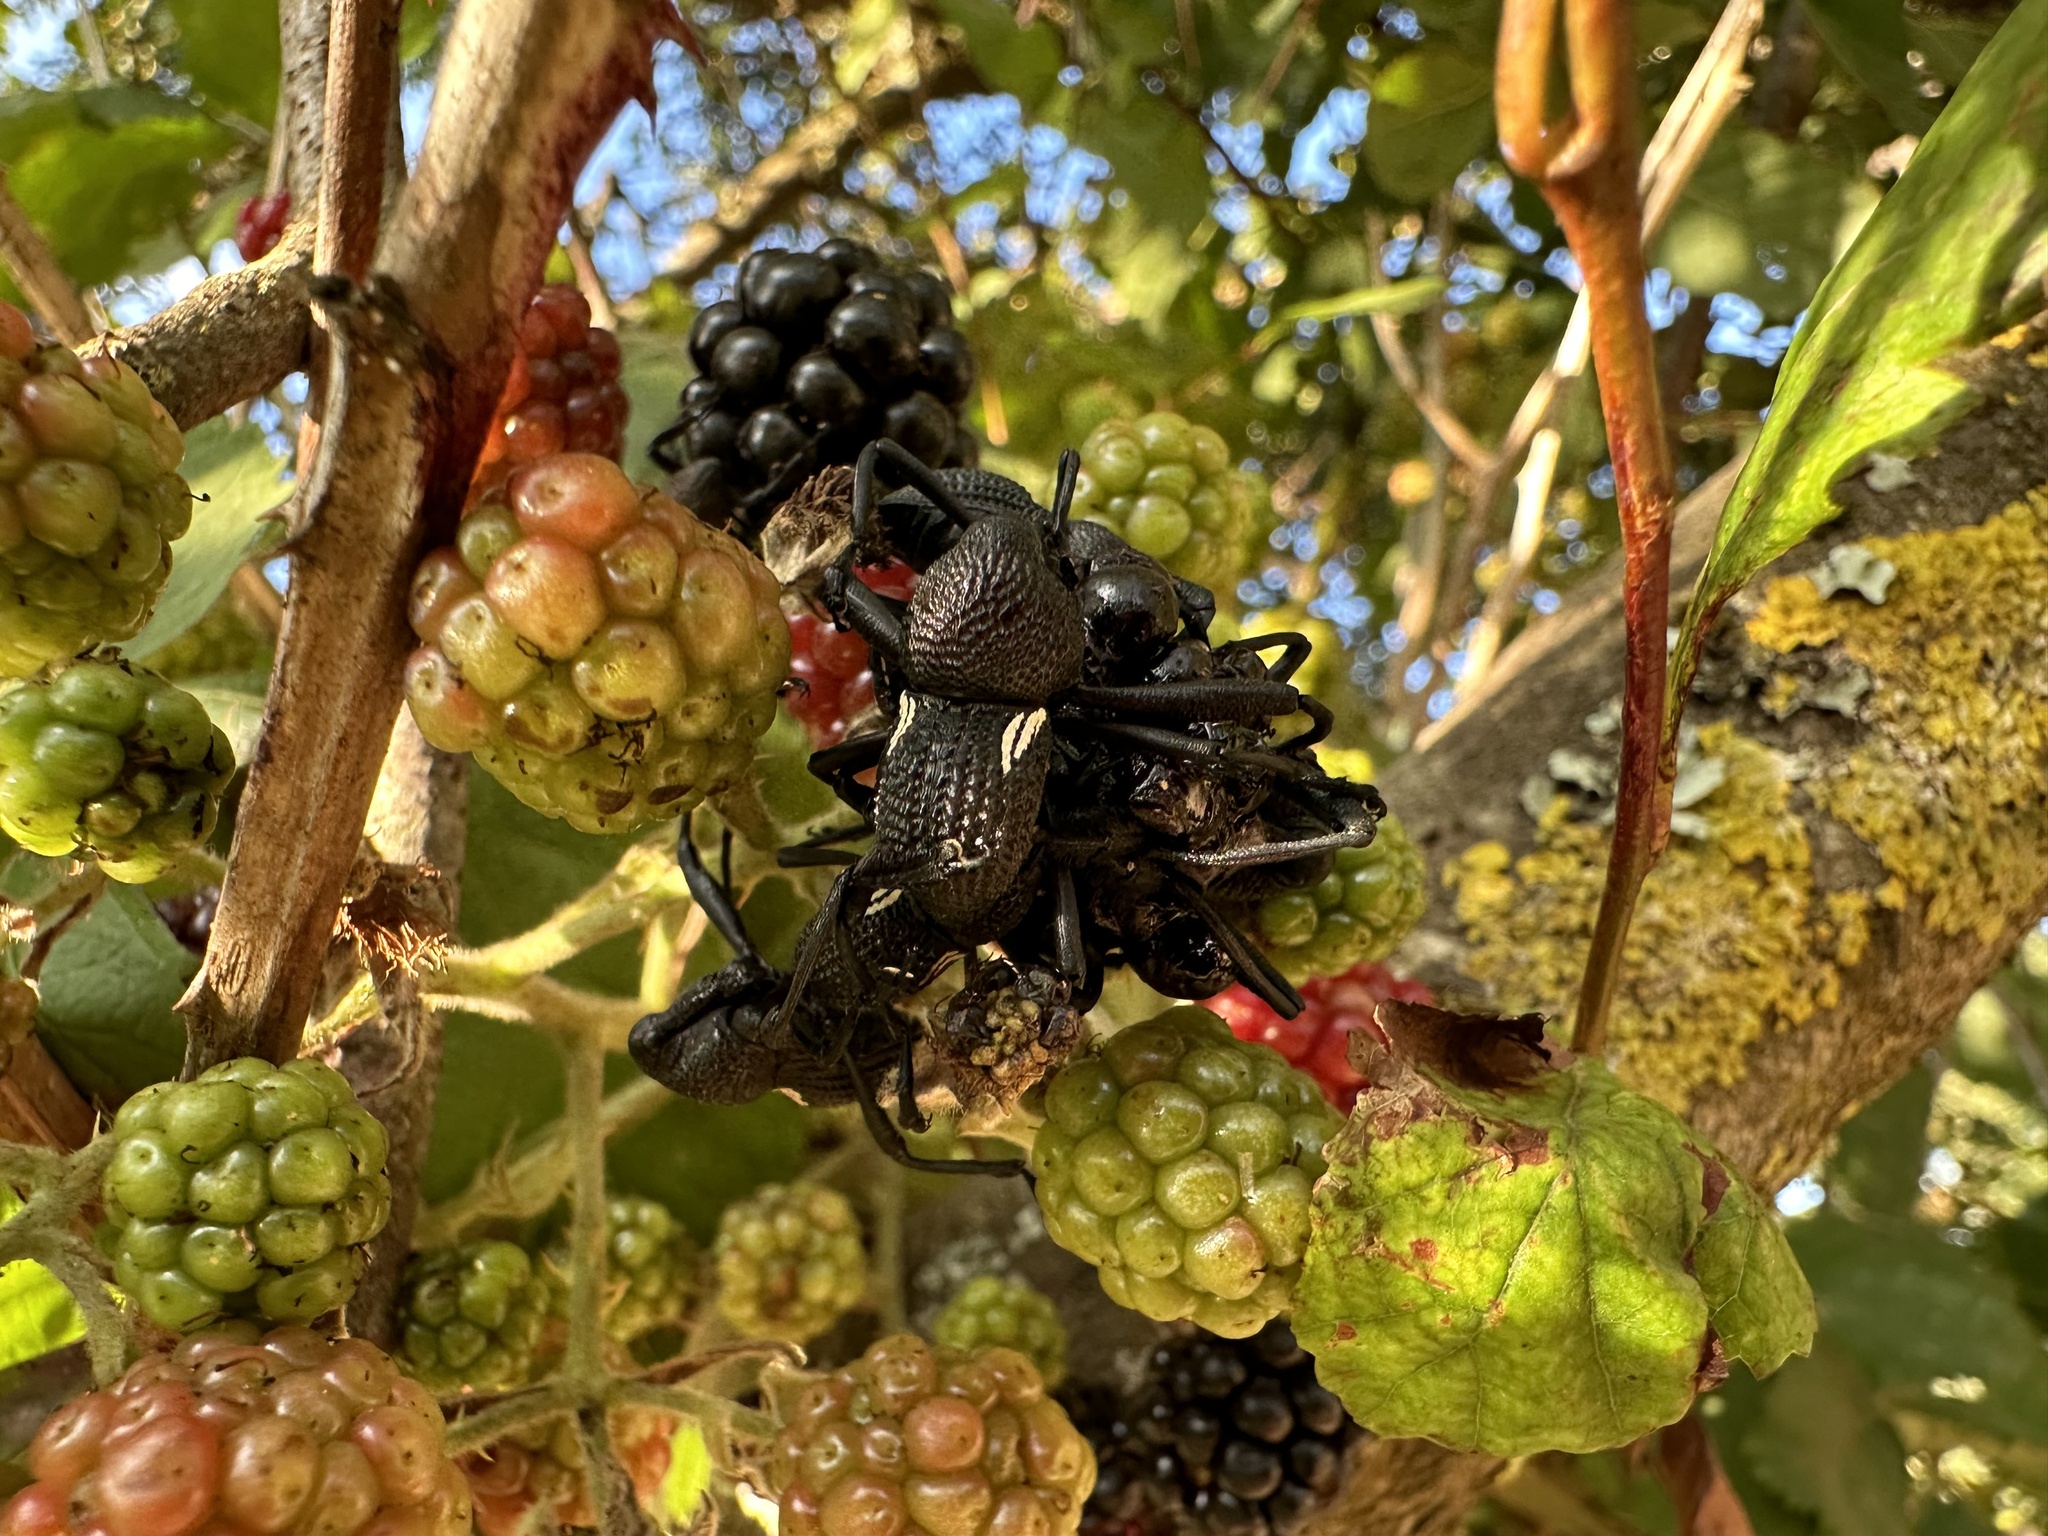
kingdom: Animalia
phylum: Arthropoda
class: Insecta
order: Coleoptera
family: Curculionidae
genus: Rhyephenes
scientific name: Rhyephenes humeralis
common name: Araè±ita chilena del pino
